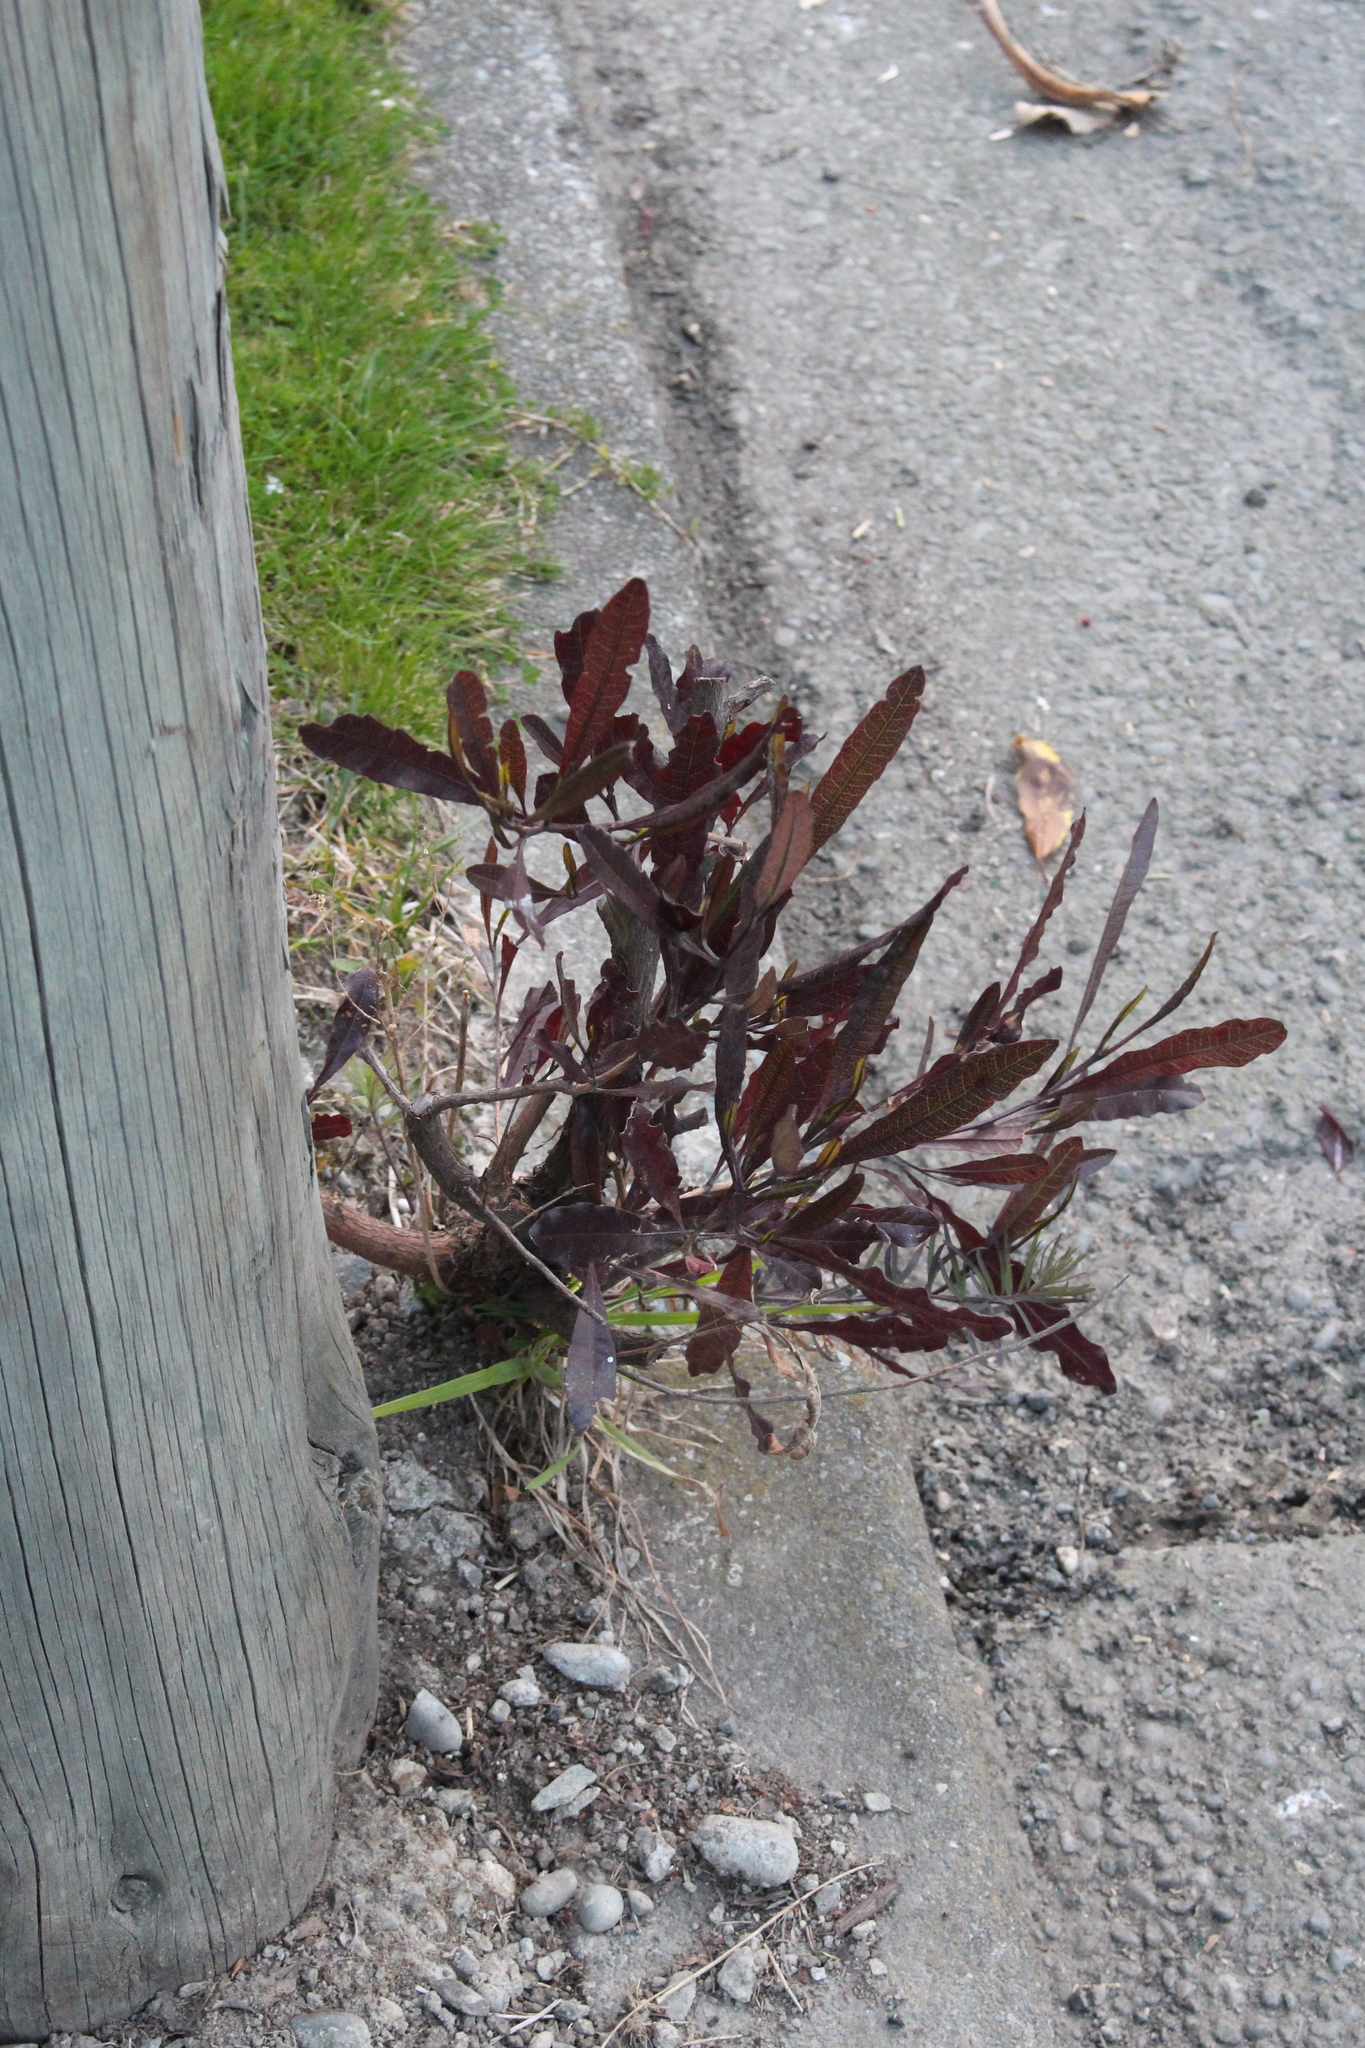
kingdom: Plantae
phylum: Tracheophyta
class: Magnoliopsida
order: Sapindales
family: Sapindaceae
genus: Dodonaea
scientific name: Dodonaea viscosa
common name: Hopbush
